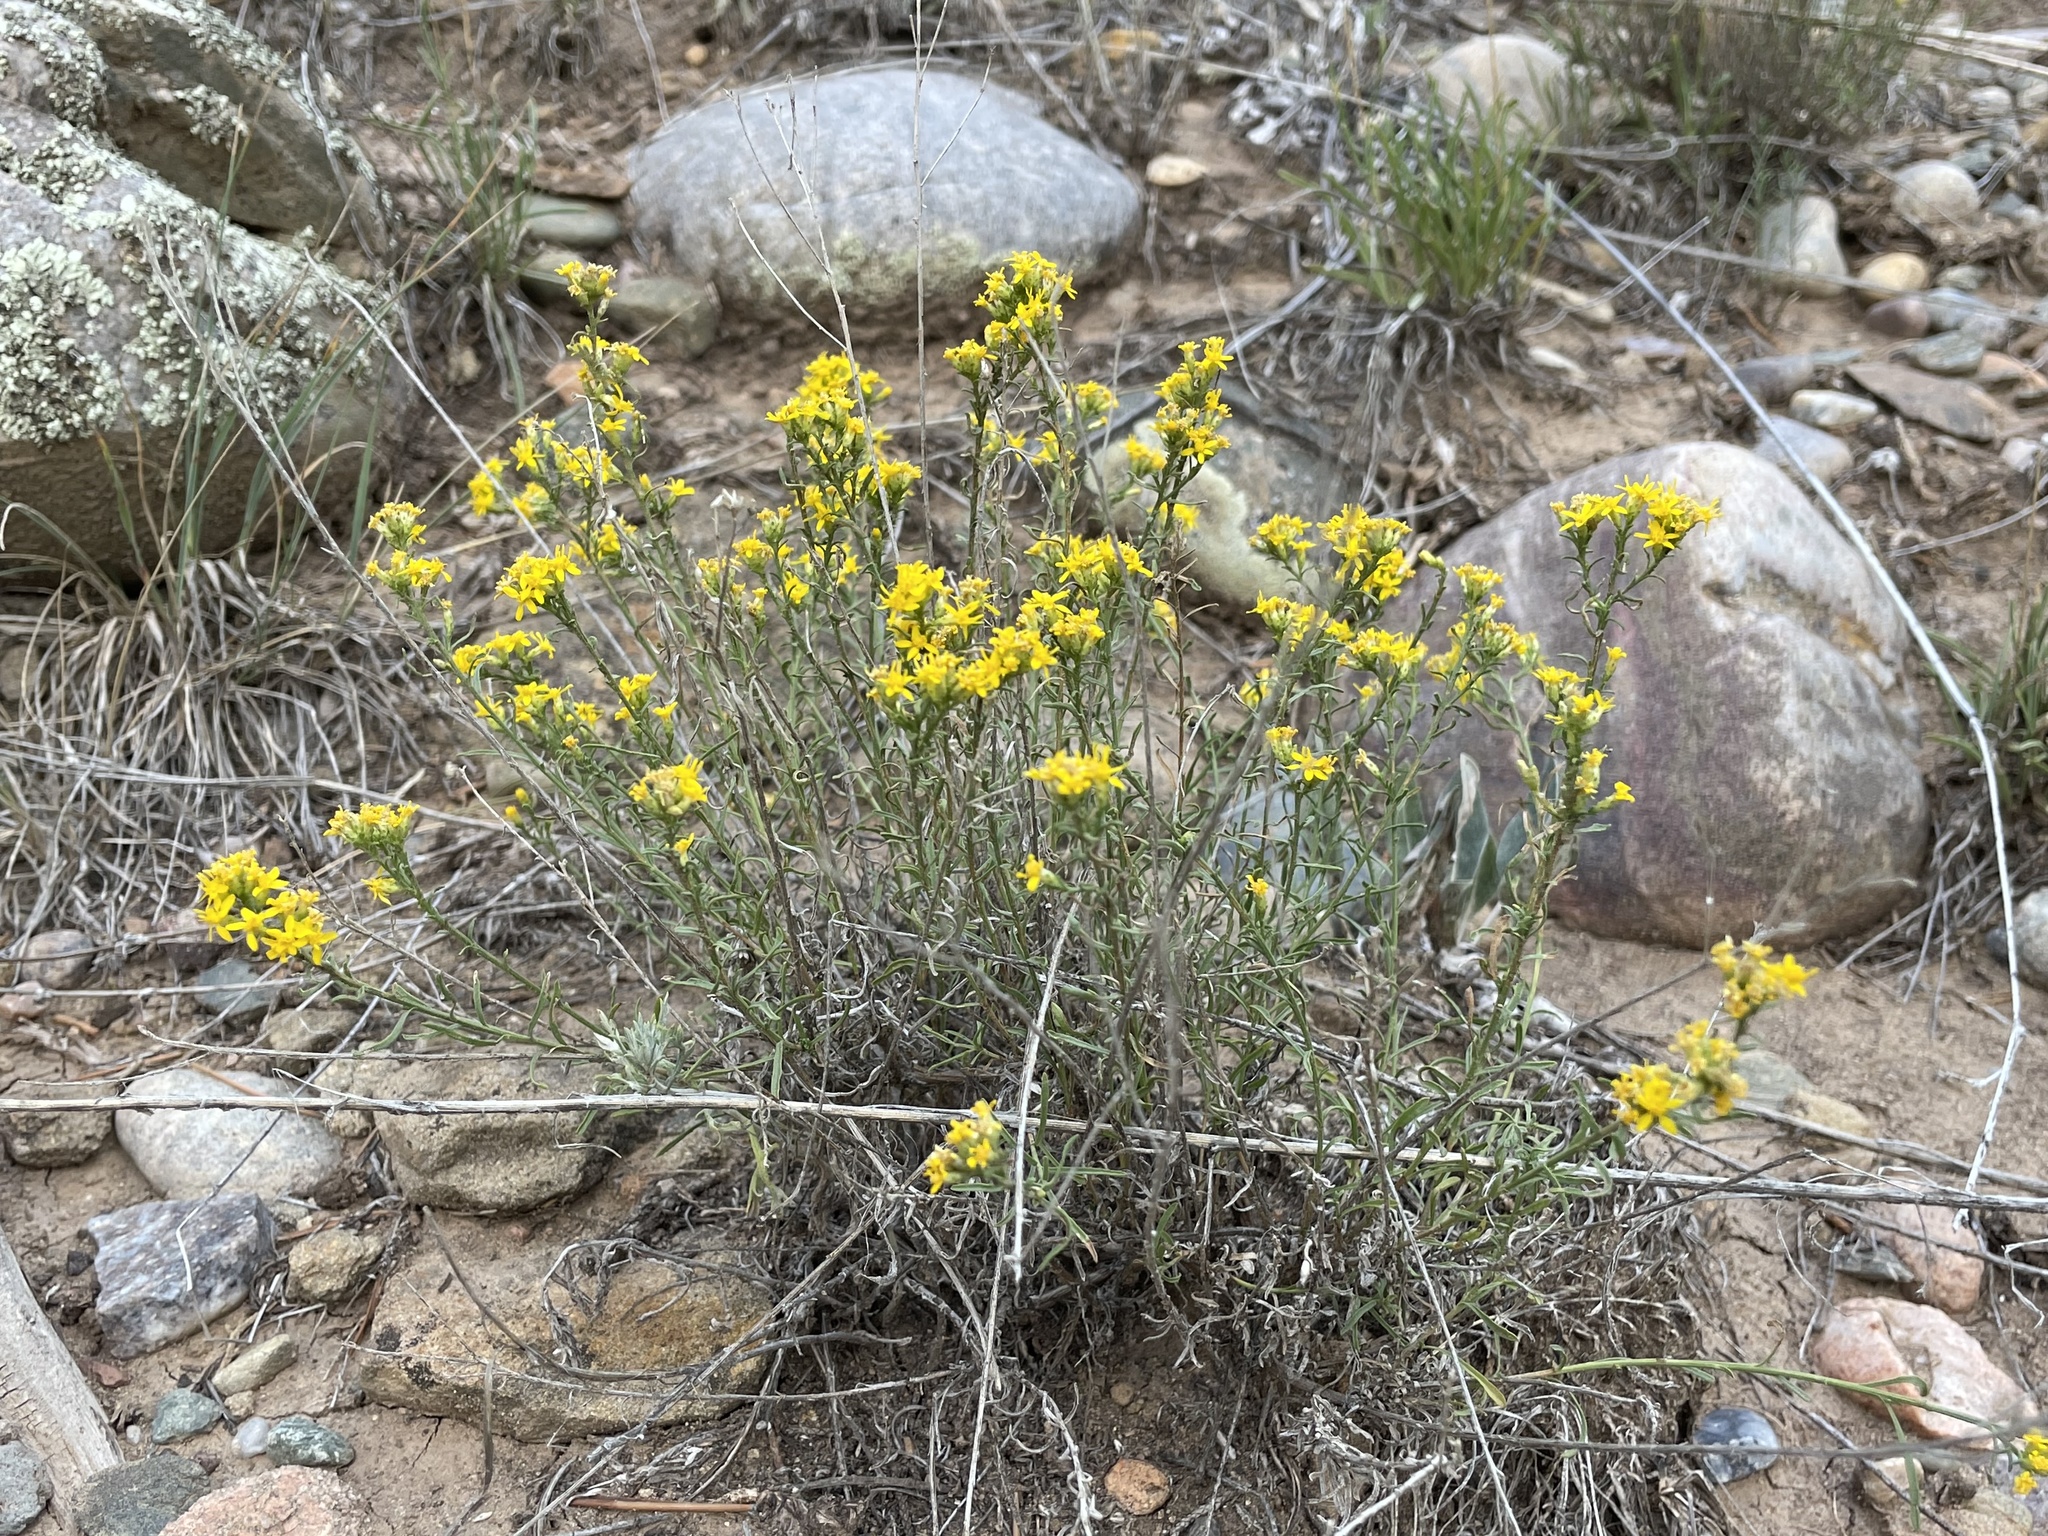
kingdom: Plantae
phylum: Tracheophyta
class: Magnoliopsida
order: Asterales
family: Asteraceae
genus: Gutierrezia
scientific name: Gutierrezia sarothrae
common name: Broom snakeweed
